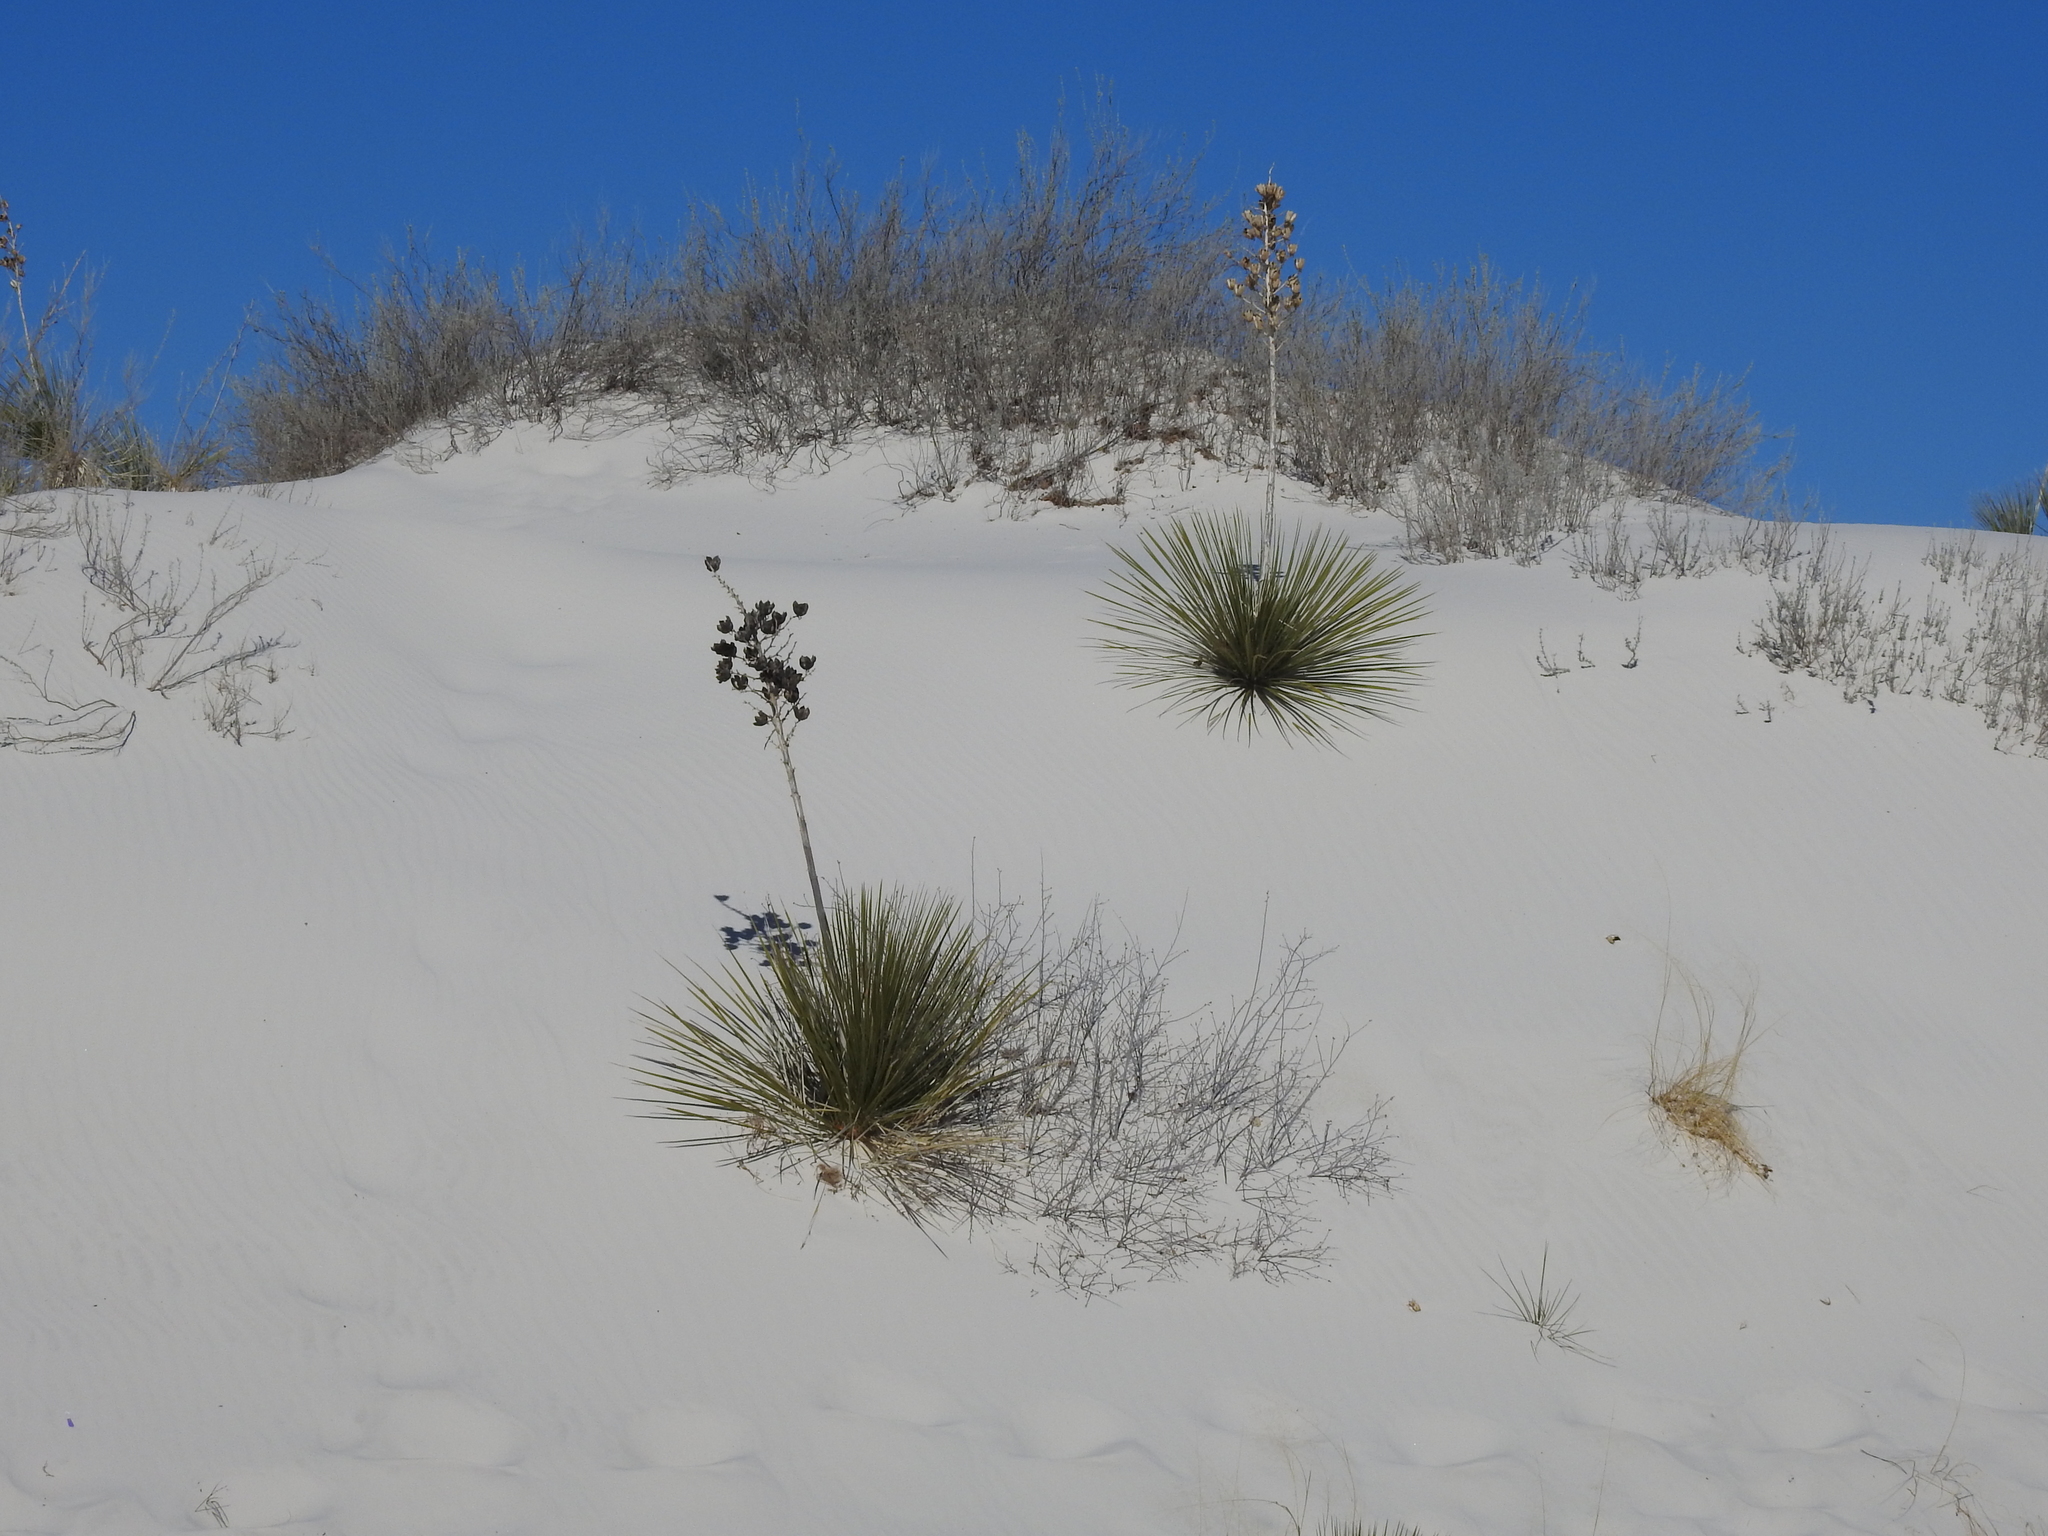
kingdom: Plantae
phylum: Tracheophyta
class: Liliopsida
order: Asparagales
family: Asparagaceae
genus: Yucca
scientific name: Yucca elata
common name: Palmella
